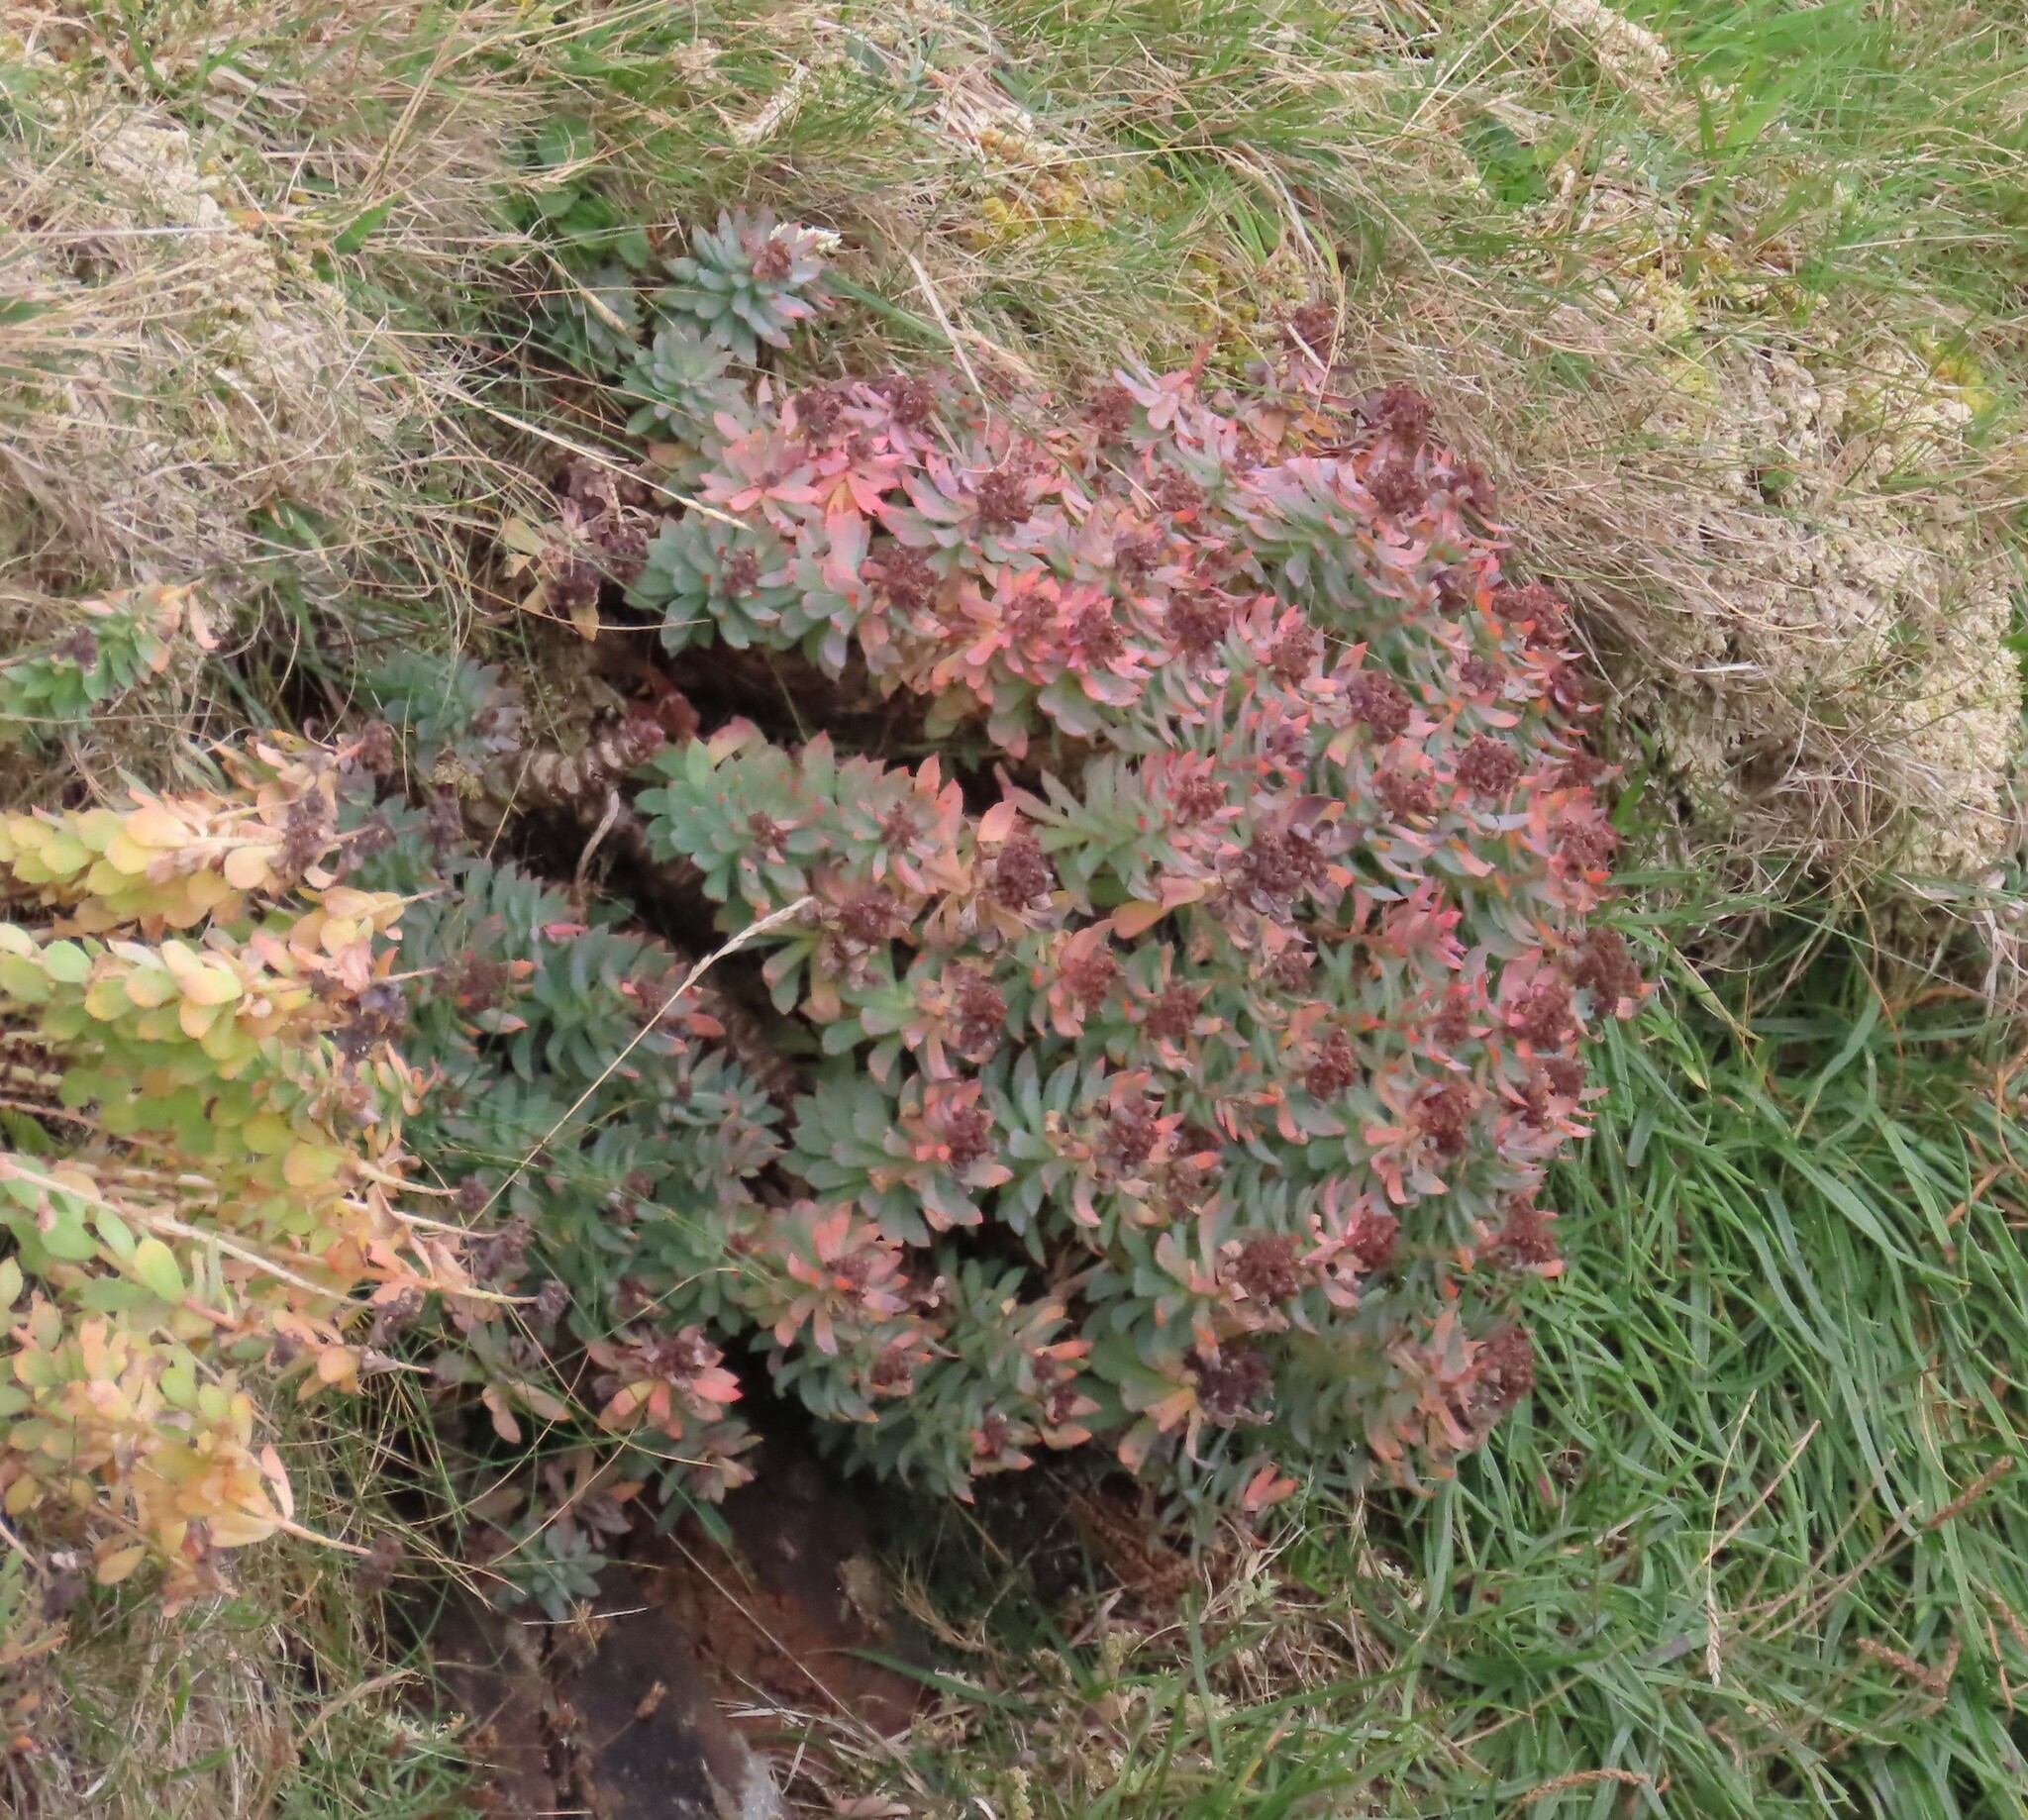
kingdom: Plantae
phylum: Tracheophyta
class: Magnoliopsida
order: Saxifragales
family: Crassulaceae
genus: Rhodiola
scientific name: Rhodiola rosea
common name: Roseroot
